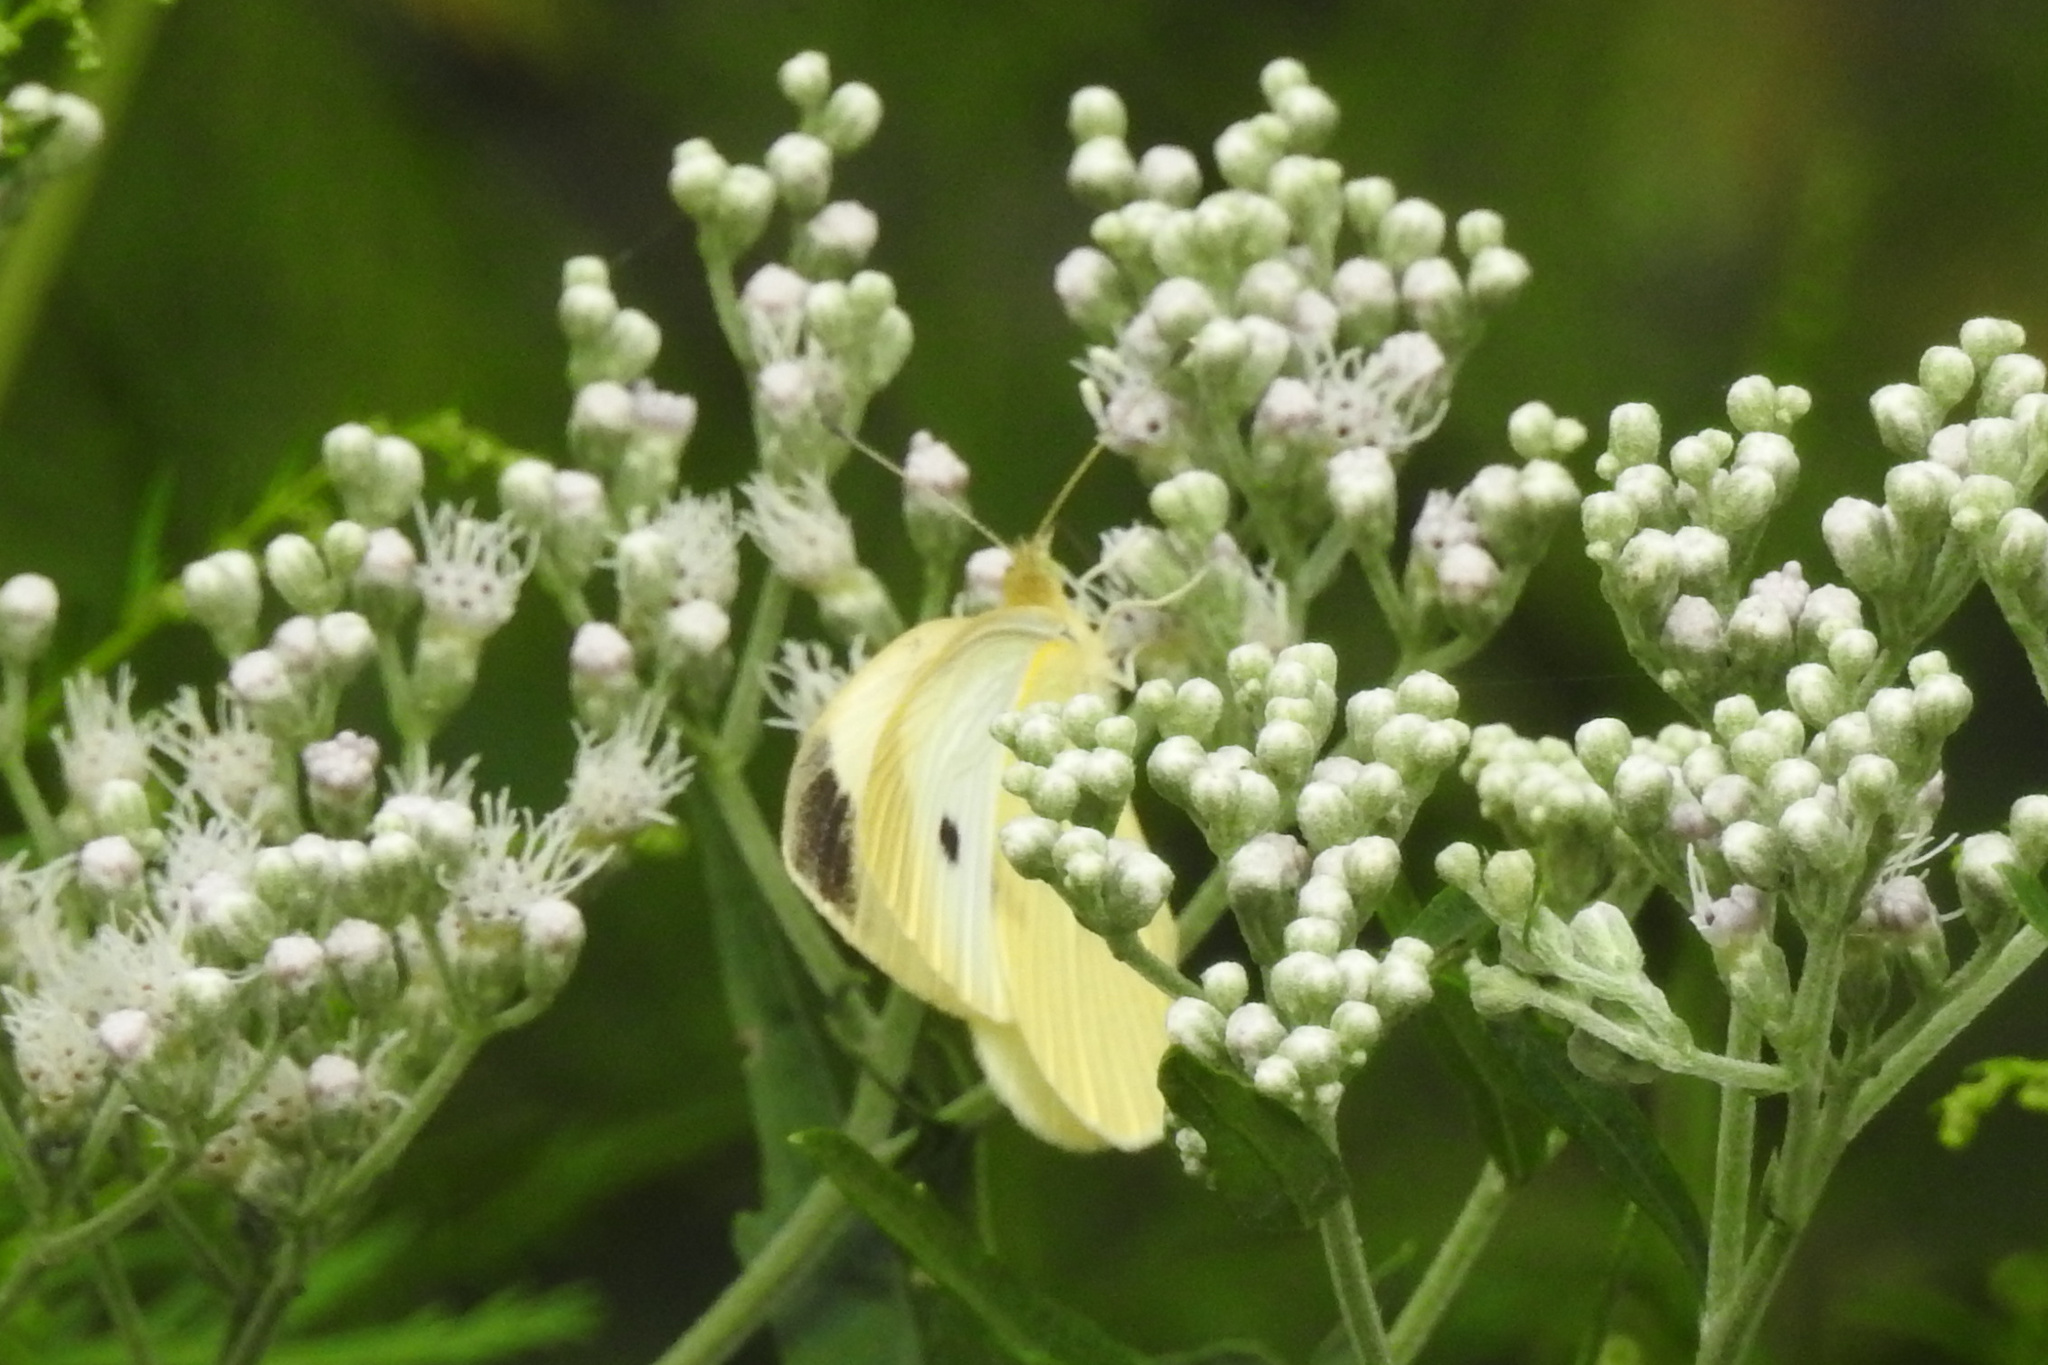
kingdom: Animalia
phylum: Arthropoda
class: Insecta
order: Lepidoptera
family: Pieridae
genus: Pieris
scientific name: Pieris rapae
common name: Small white
